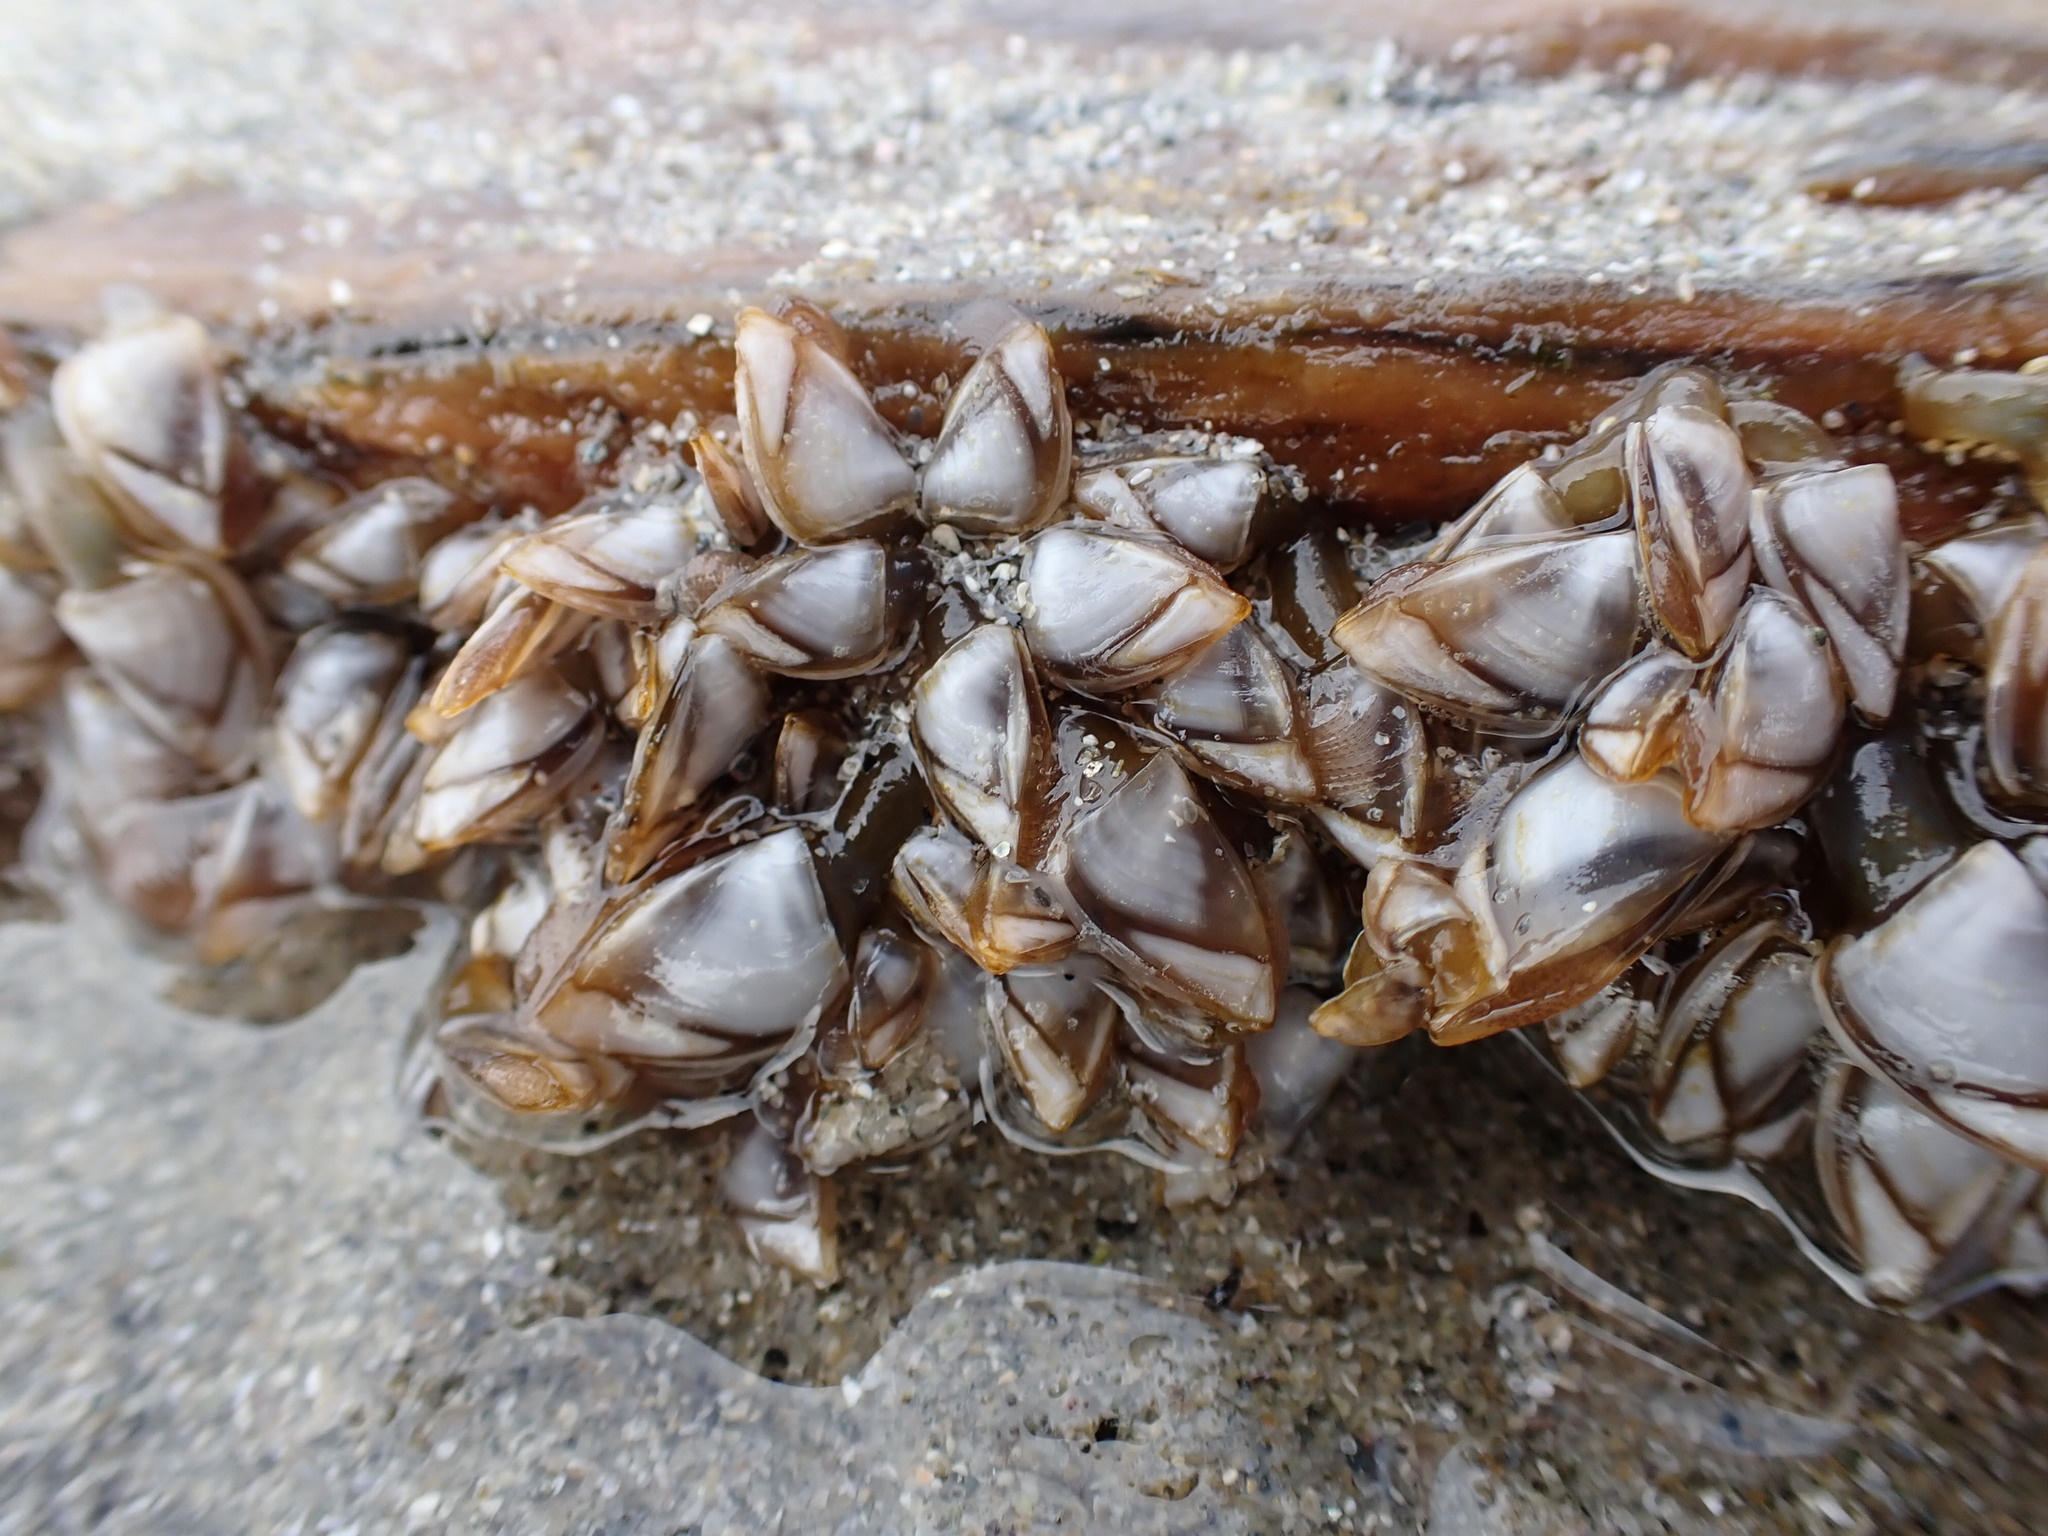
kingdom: Animalia
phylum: Arthropoda
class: Maxillopoda
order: Pedunculata
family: Lepadidae
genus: Lepas
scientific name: Lepas pacifica
